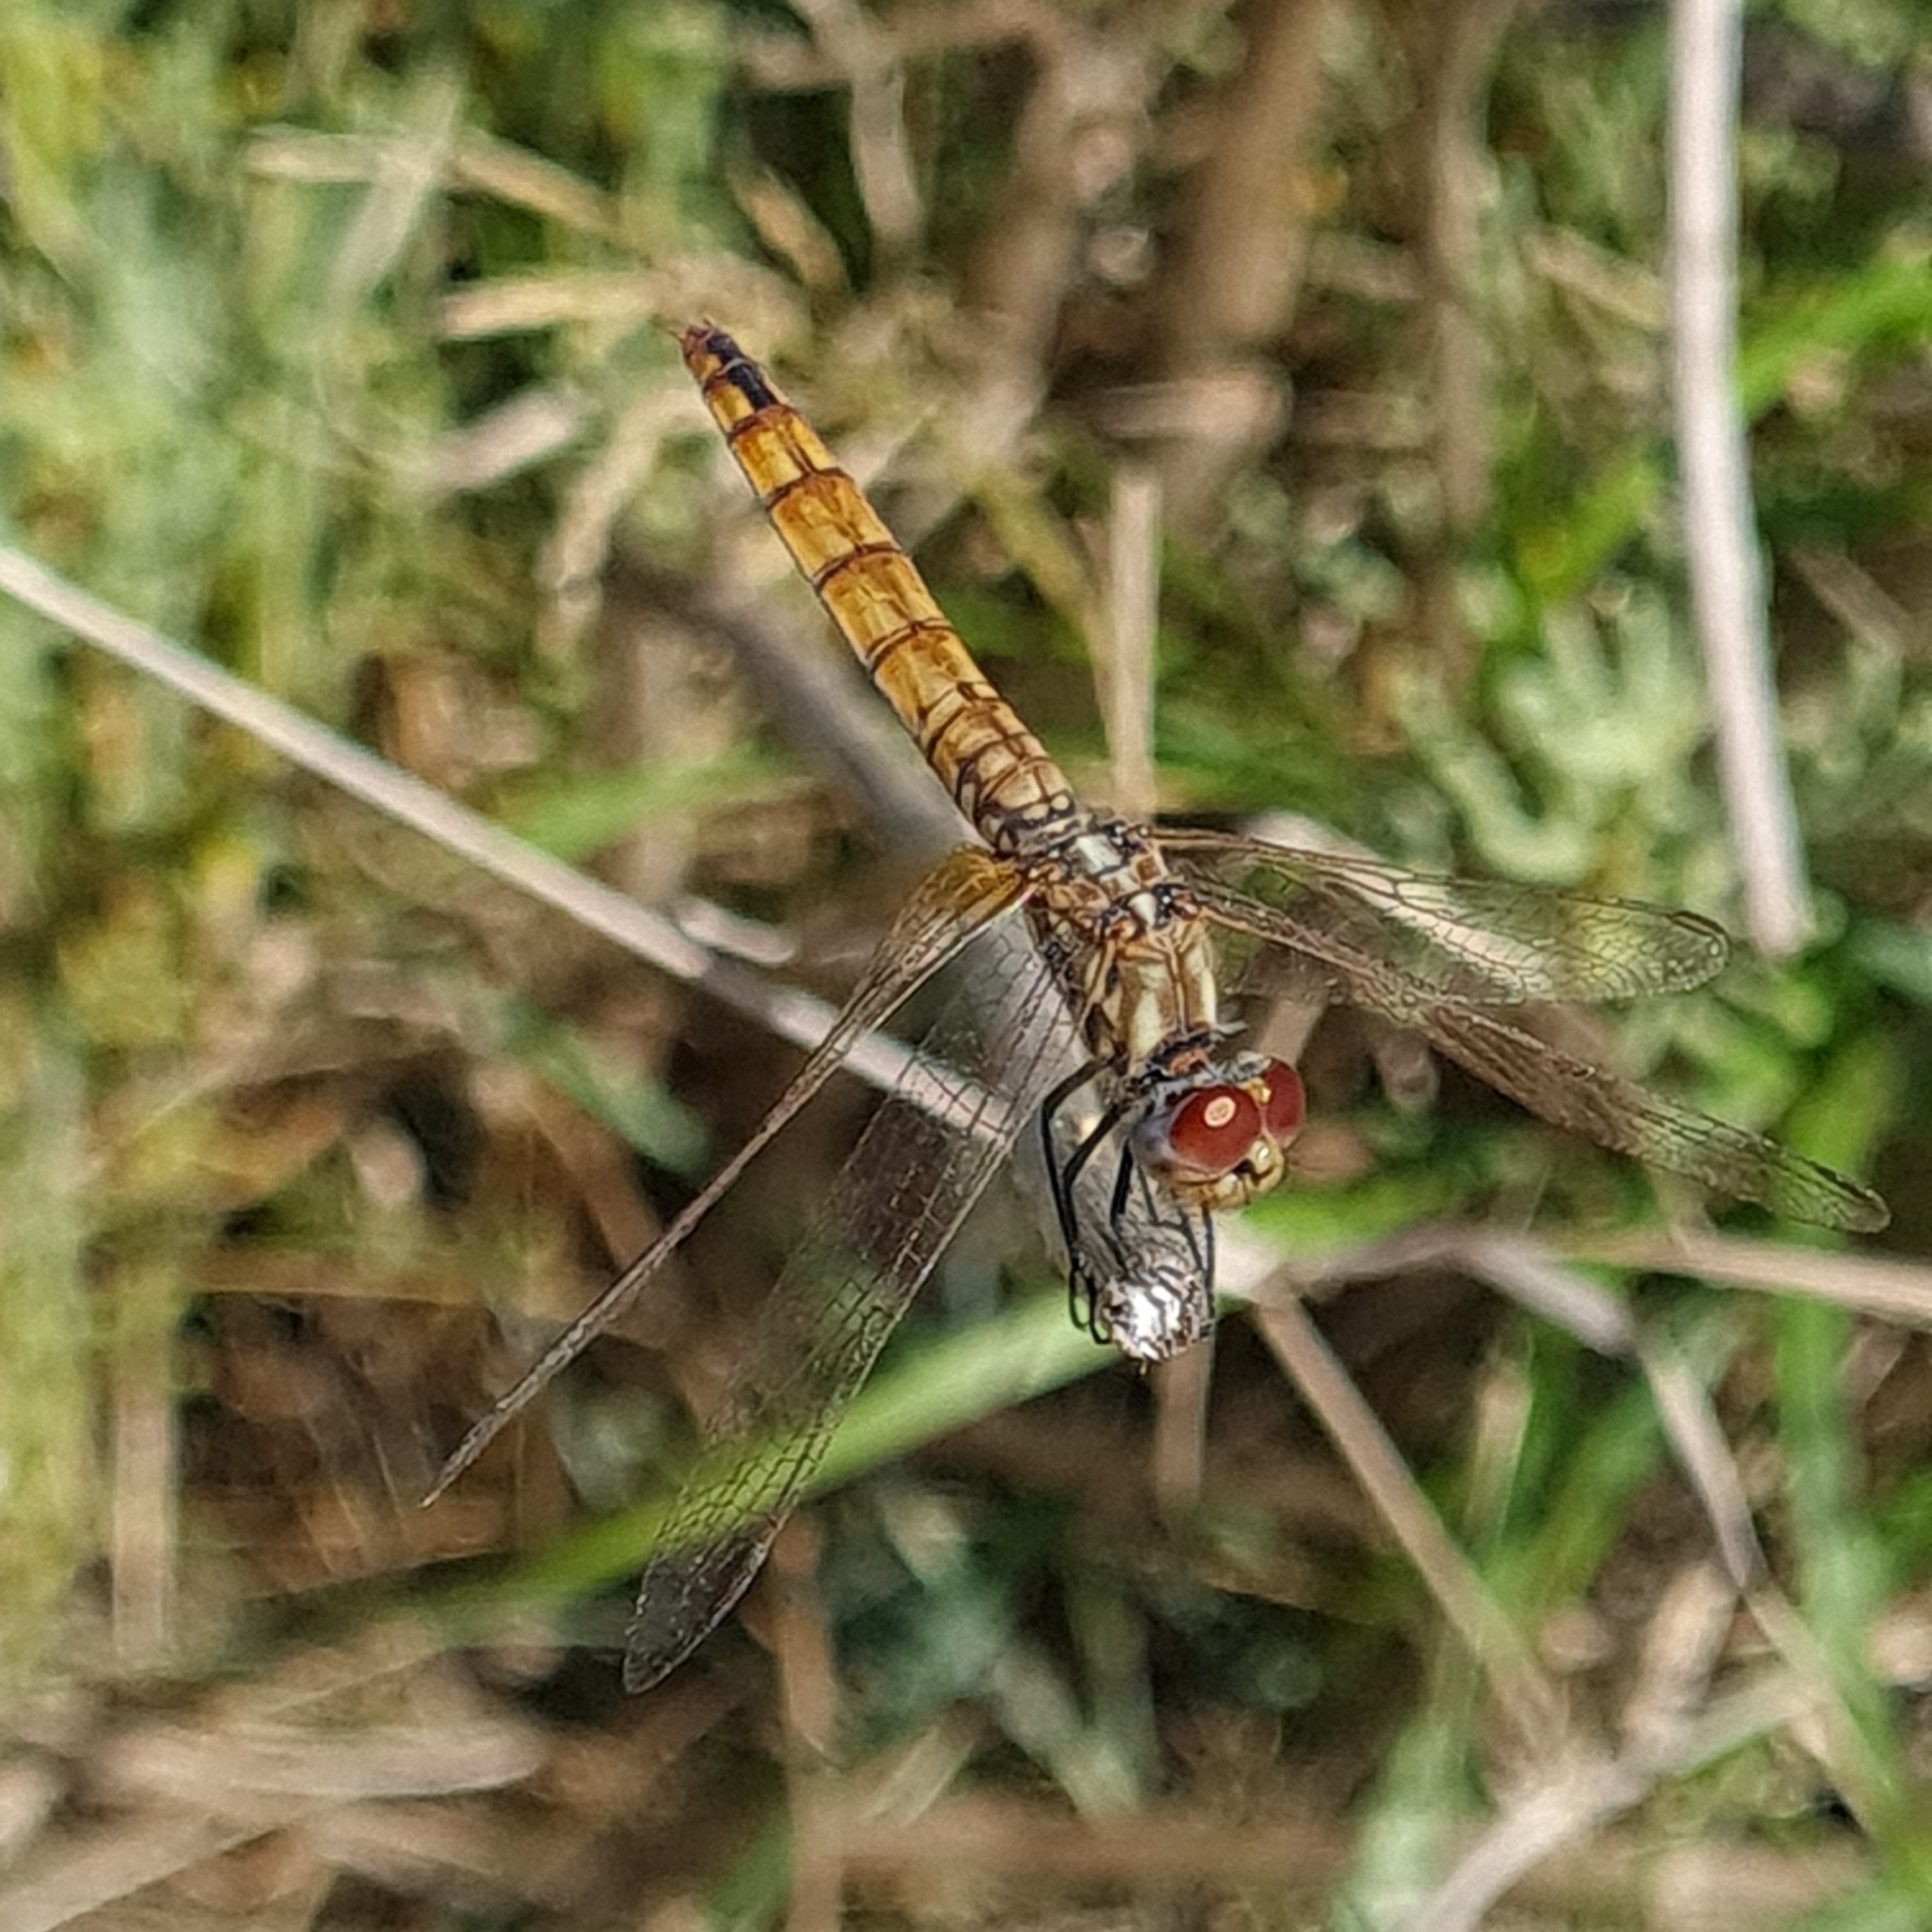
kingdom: Animalia
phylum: Arthropoda
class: Insecta
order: Odonata
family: Libellulidae
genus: Trithemis
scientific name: Trithemis annulata
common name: Violet dropwing
